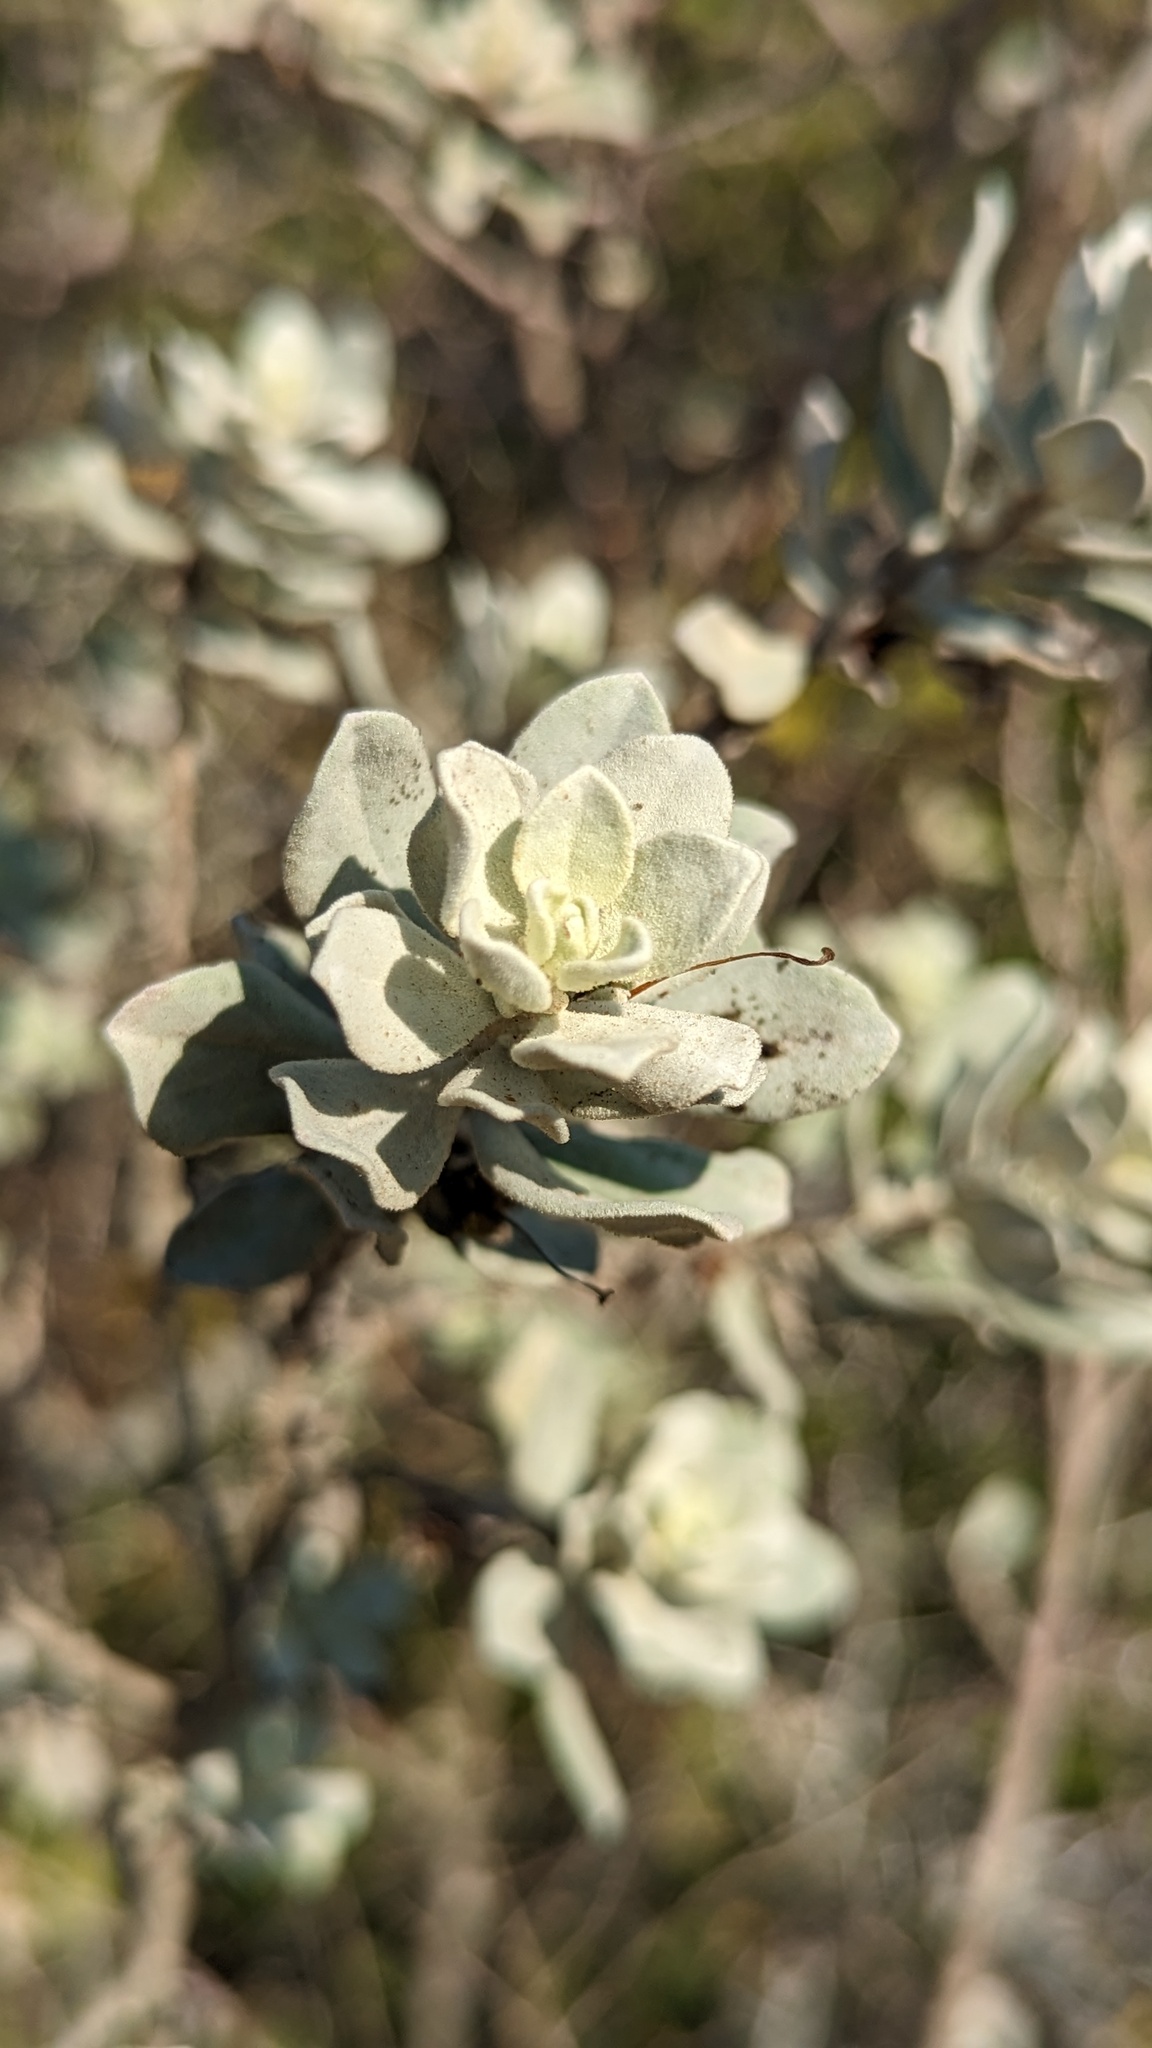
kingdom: Plantae
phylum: Tracheophyta
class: Magnoliopsida
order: Lamiales
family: Scrophulariaceae
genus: Leucophyllum
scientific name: Leucophyllum frutescens
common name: Texas silverleaf
